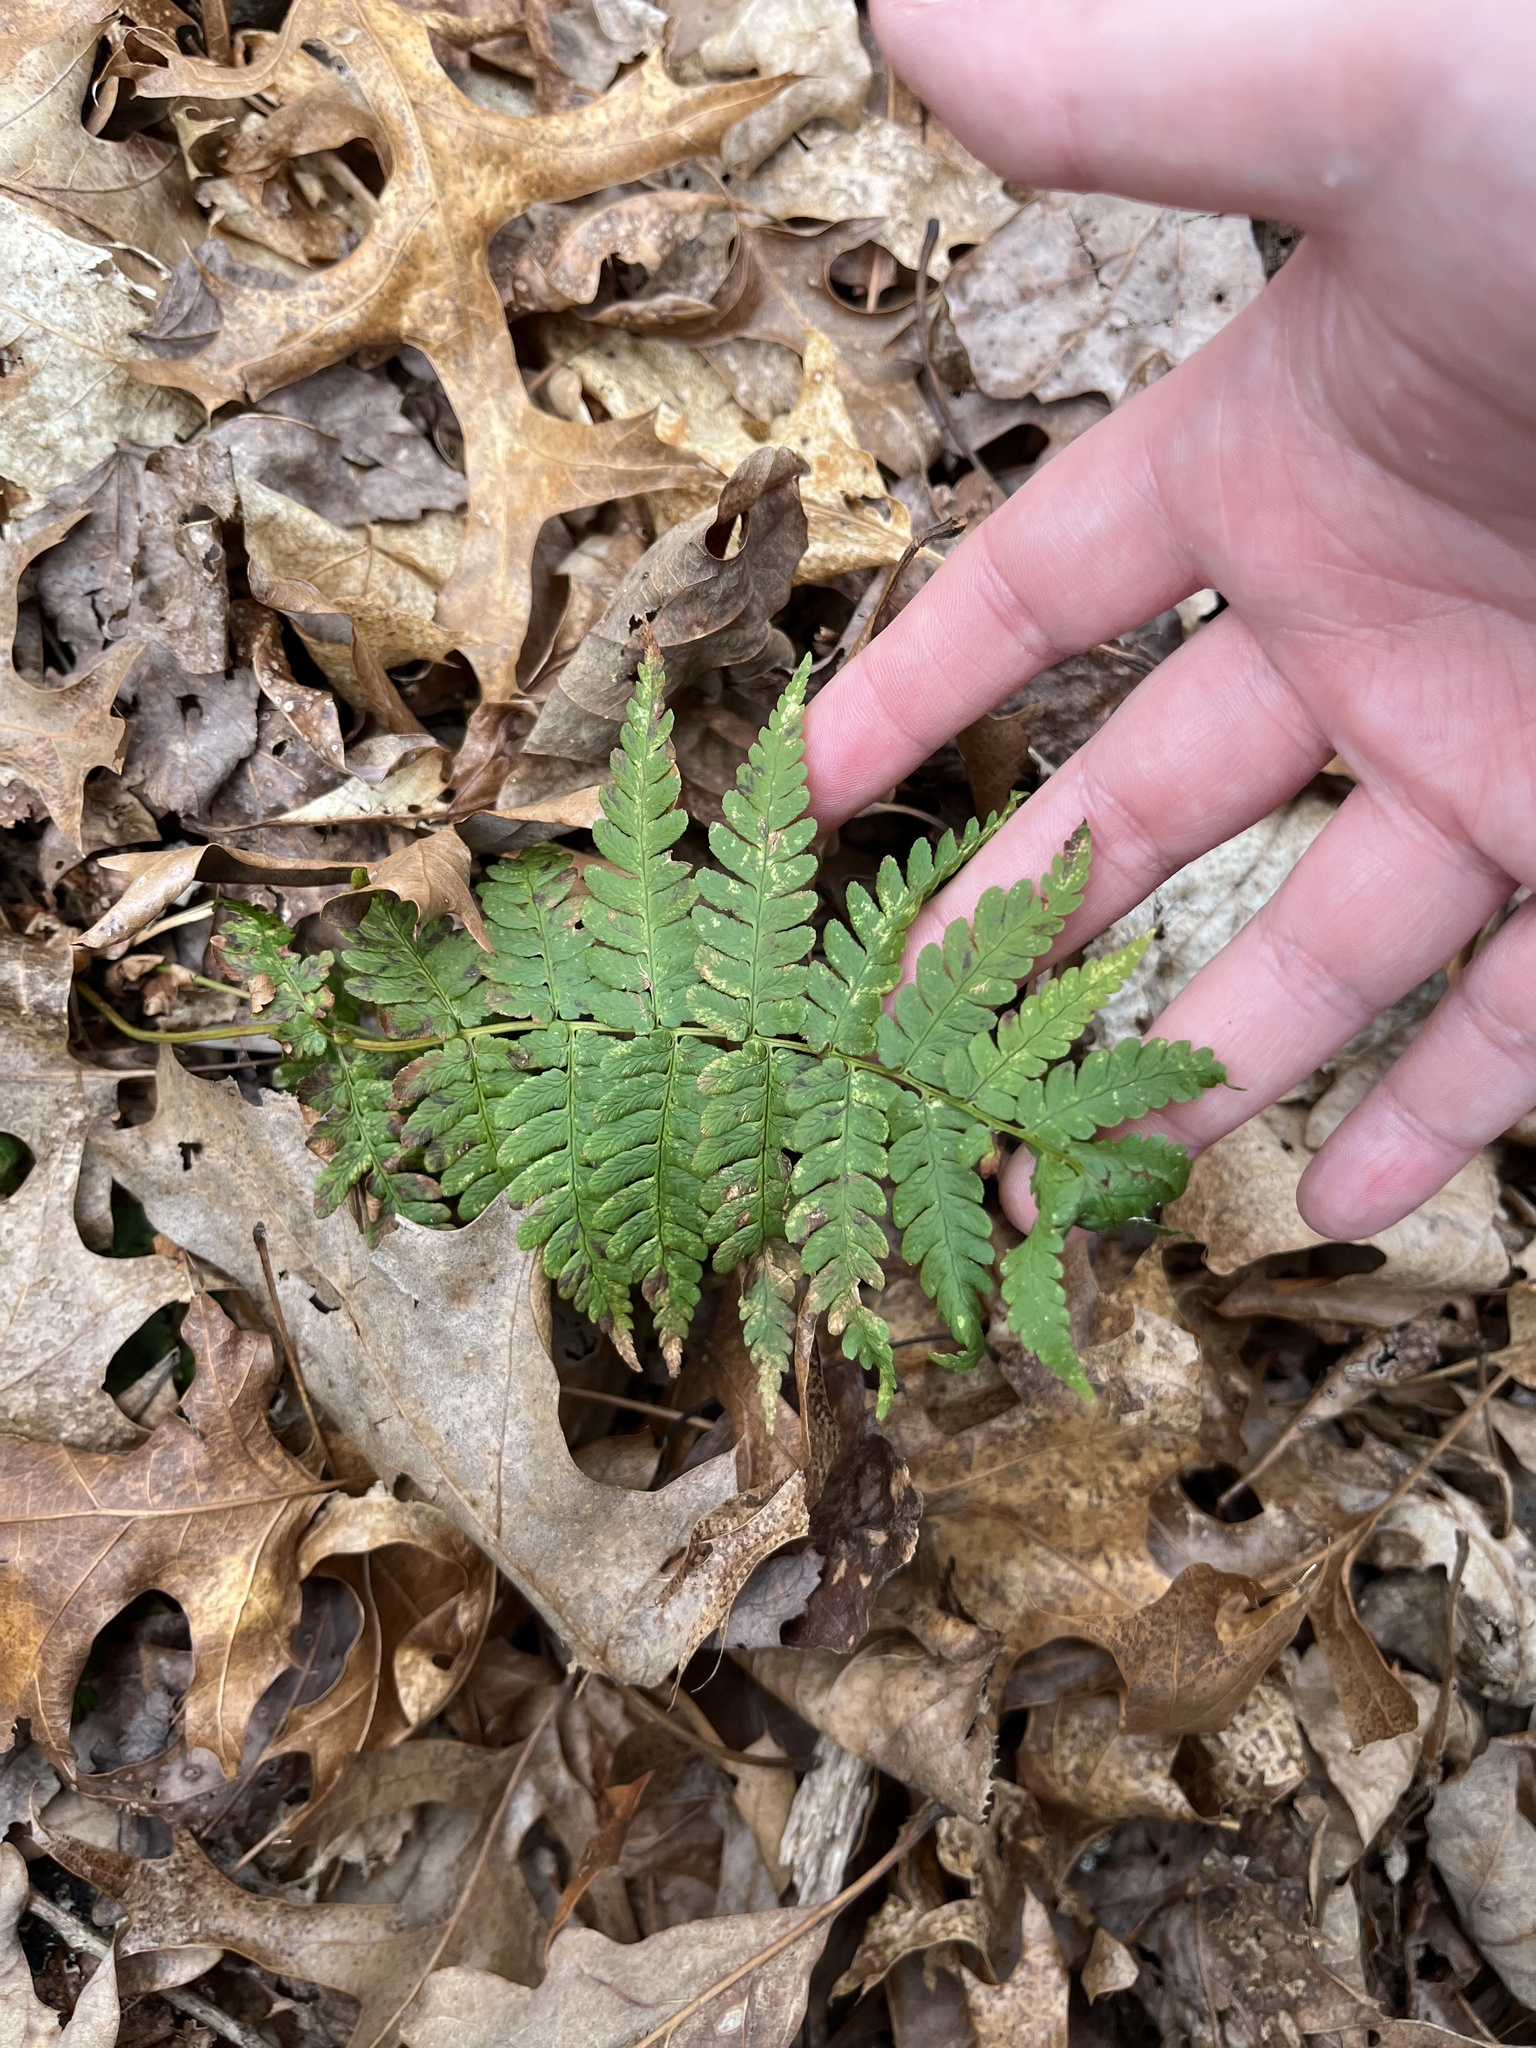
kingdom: Plantae
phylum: Tracheophyta
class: Polypodiopsida
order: Polypodiales
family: Dryopteridaceae
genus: Dryopteris
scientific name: Dryopteris marginalis
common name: Marginal wood fern
